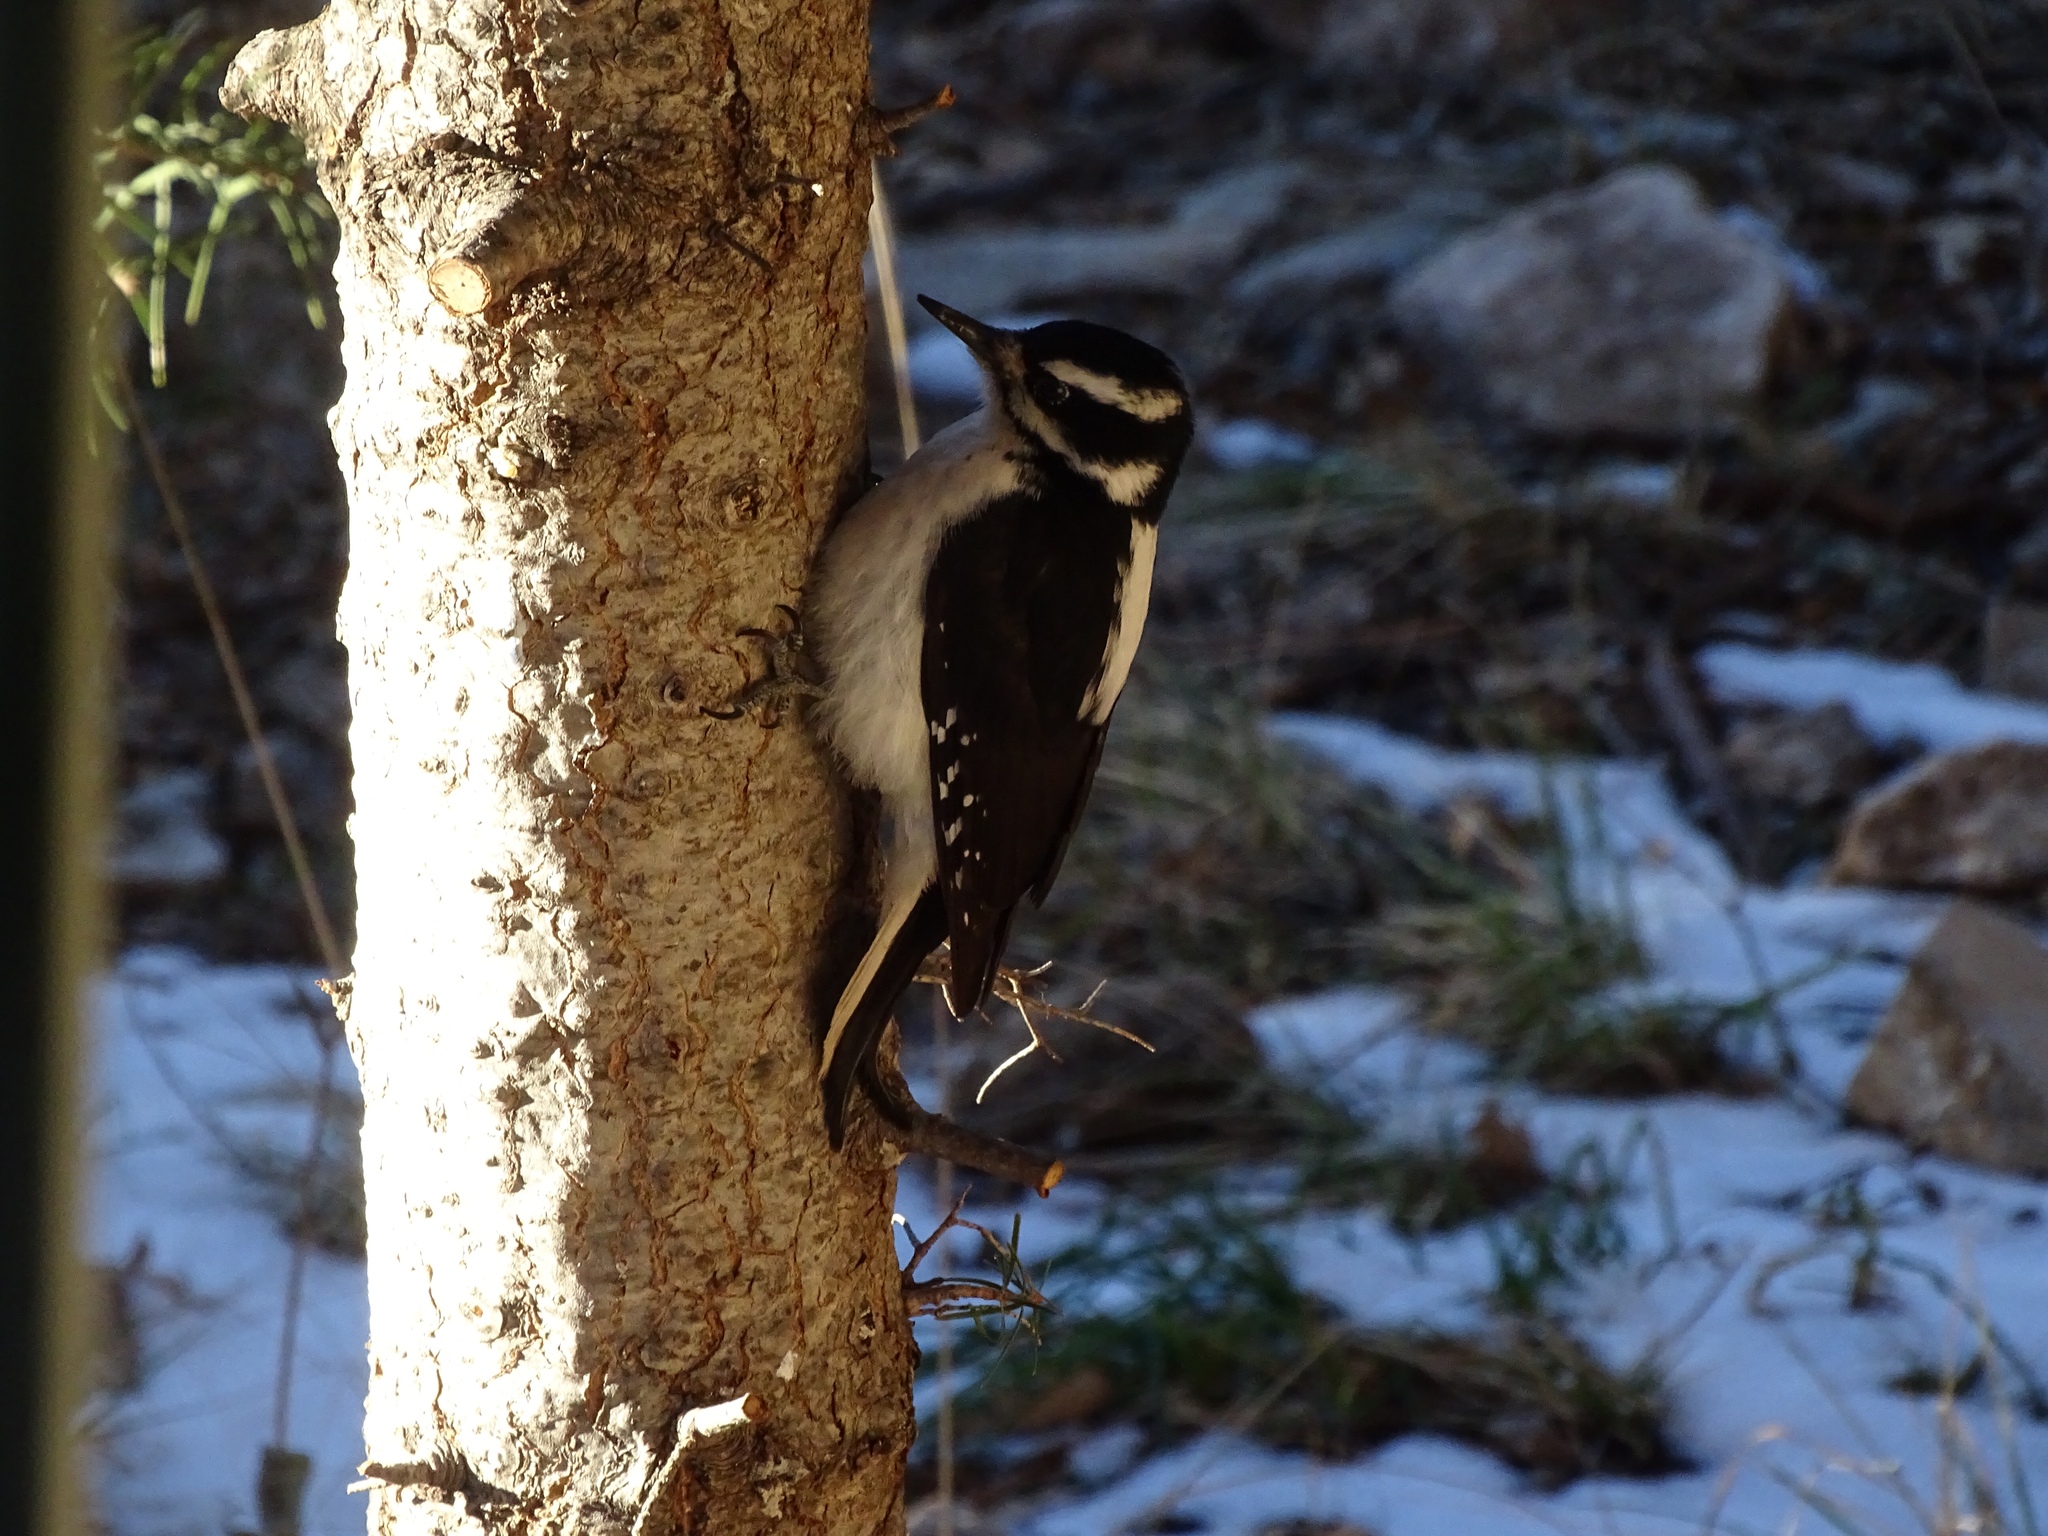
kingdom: Animalia
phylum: Chordata
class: Aves
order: Piciformes
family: Picidae
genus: Leuconotopicus
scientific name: Leuconotopicus villosus
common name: Hairy woodpecker
